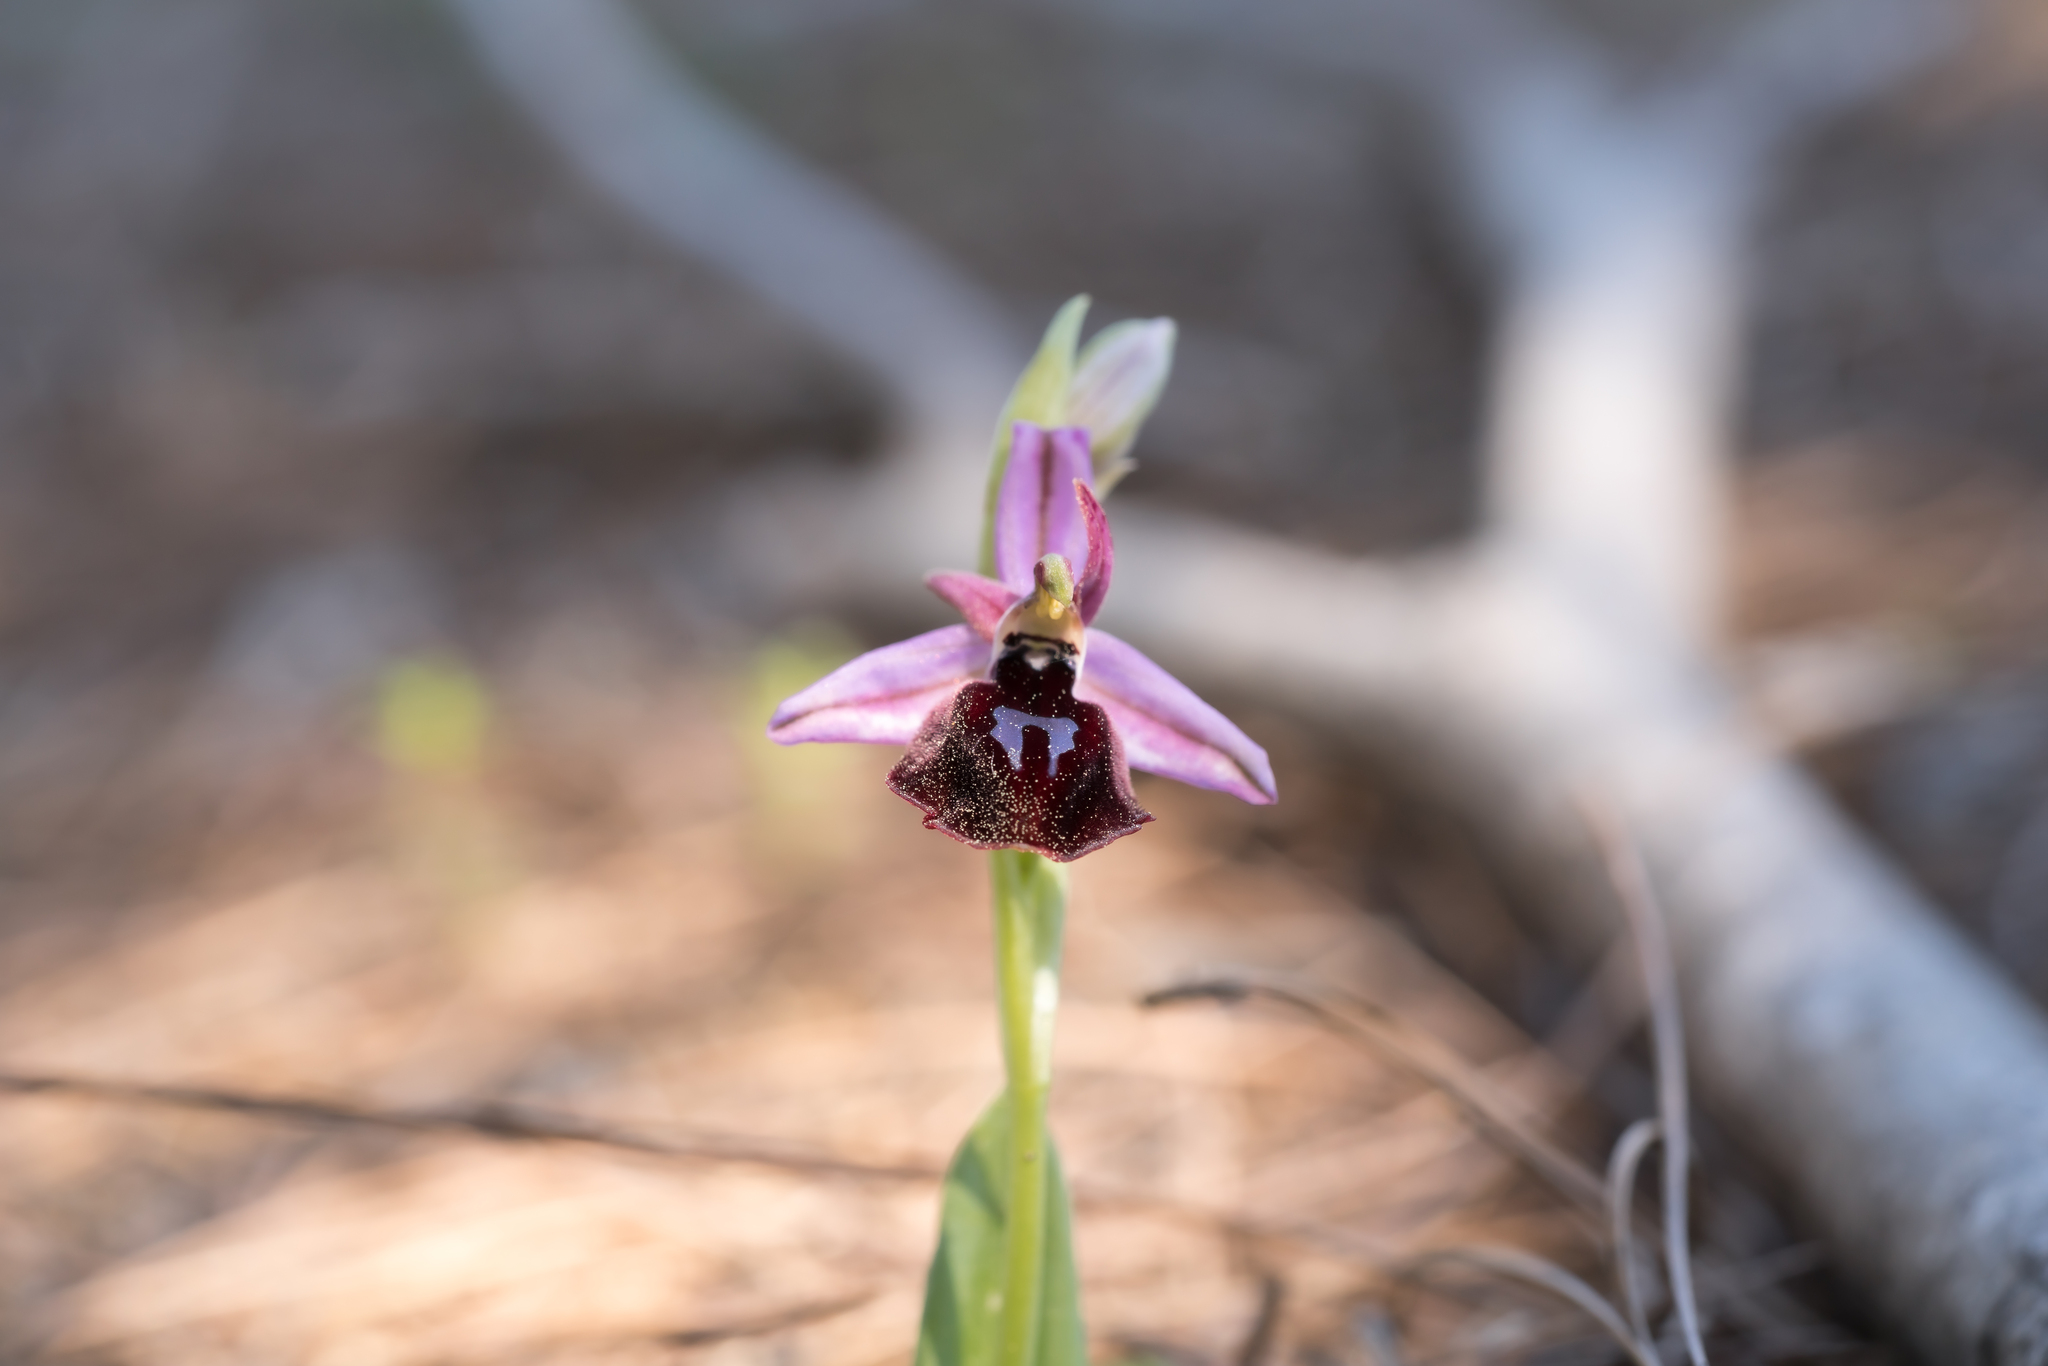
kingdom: Plantae
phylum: Tracheophyta
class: Liliopsida
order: Asparagales
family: Orchidaceae
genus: Ophrys
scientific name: Ophrys ferrum-equinum
